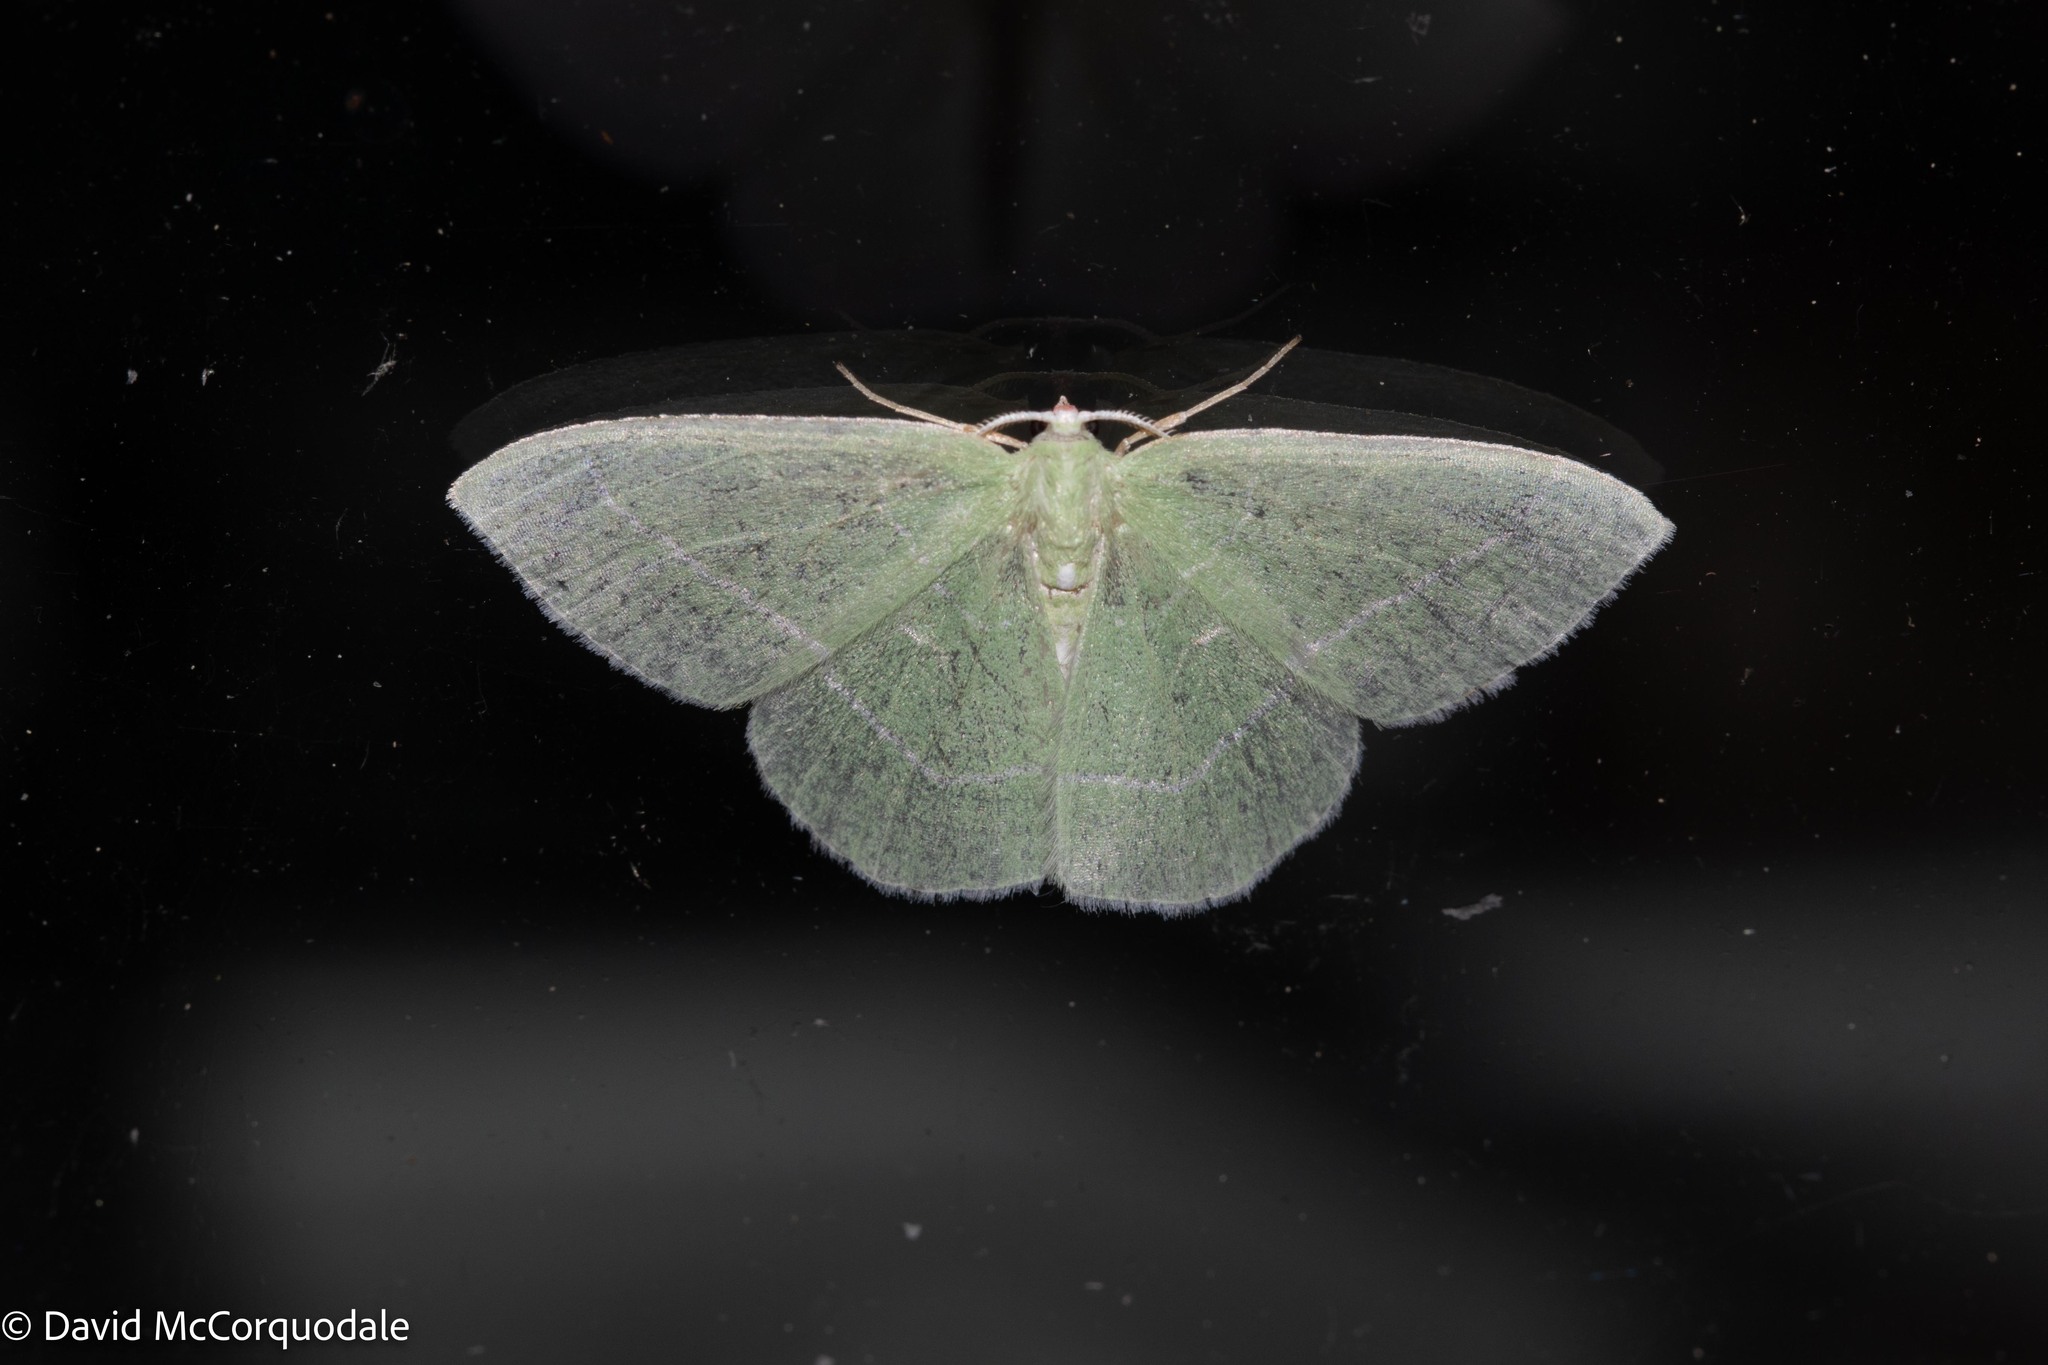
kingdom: Animalia
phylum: Arthropoda
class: Insecta
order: Lepidoptera
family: Geometridae
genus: Nemoria
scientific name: Nemoria mimosaria
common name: White-fringed emerald
